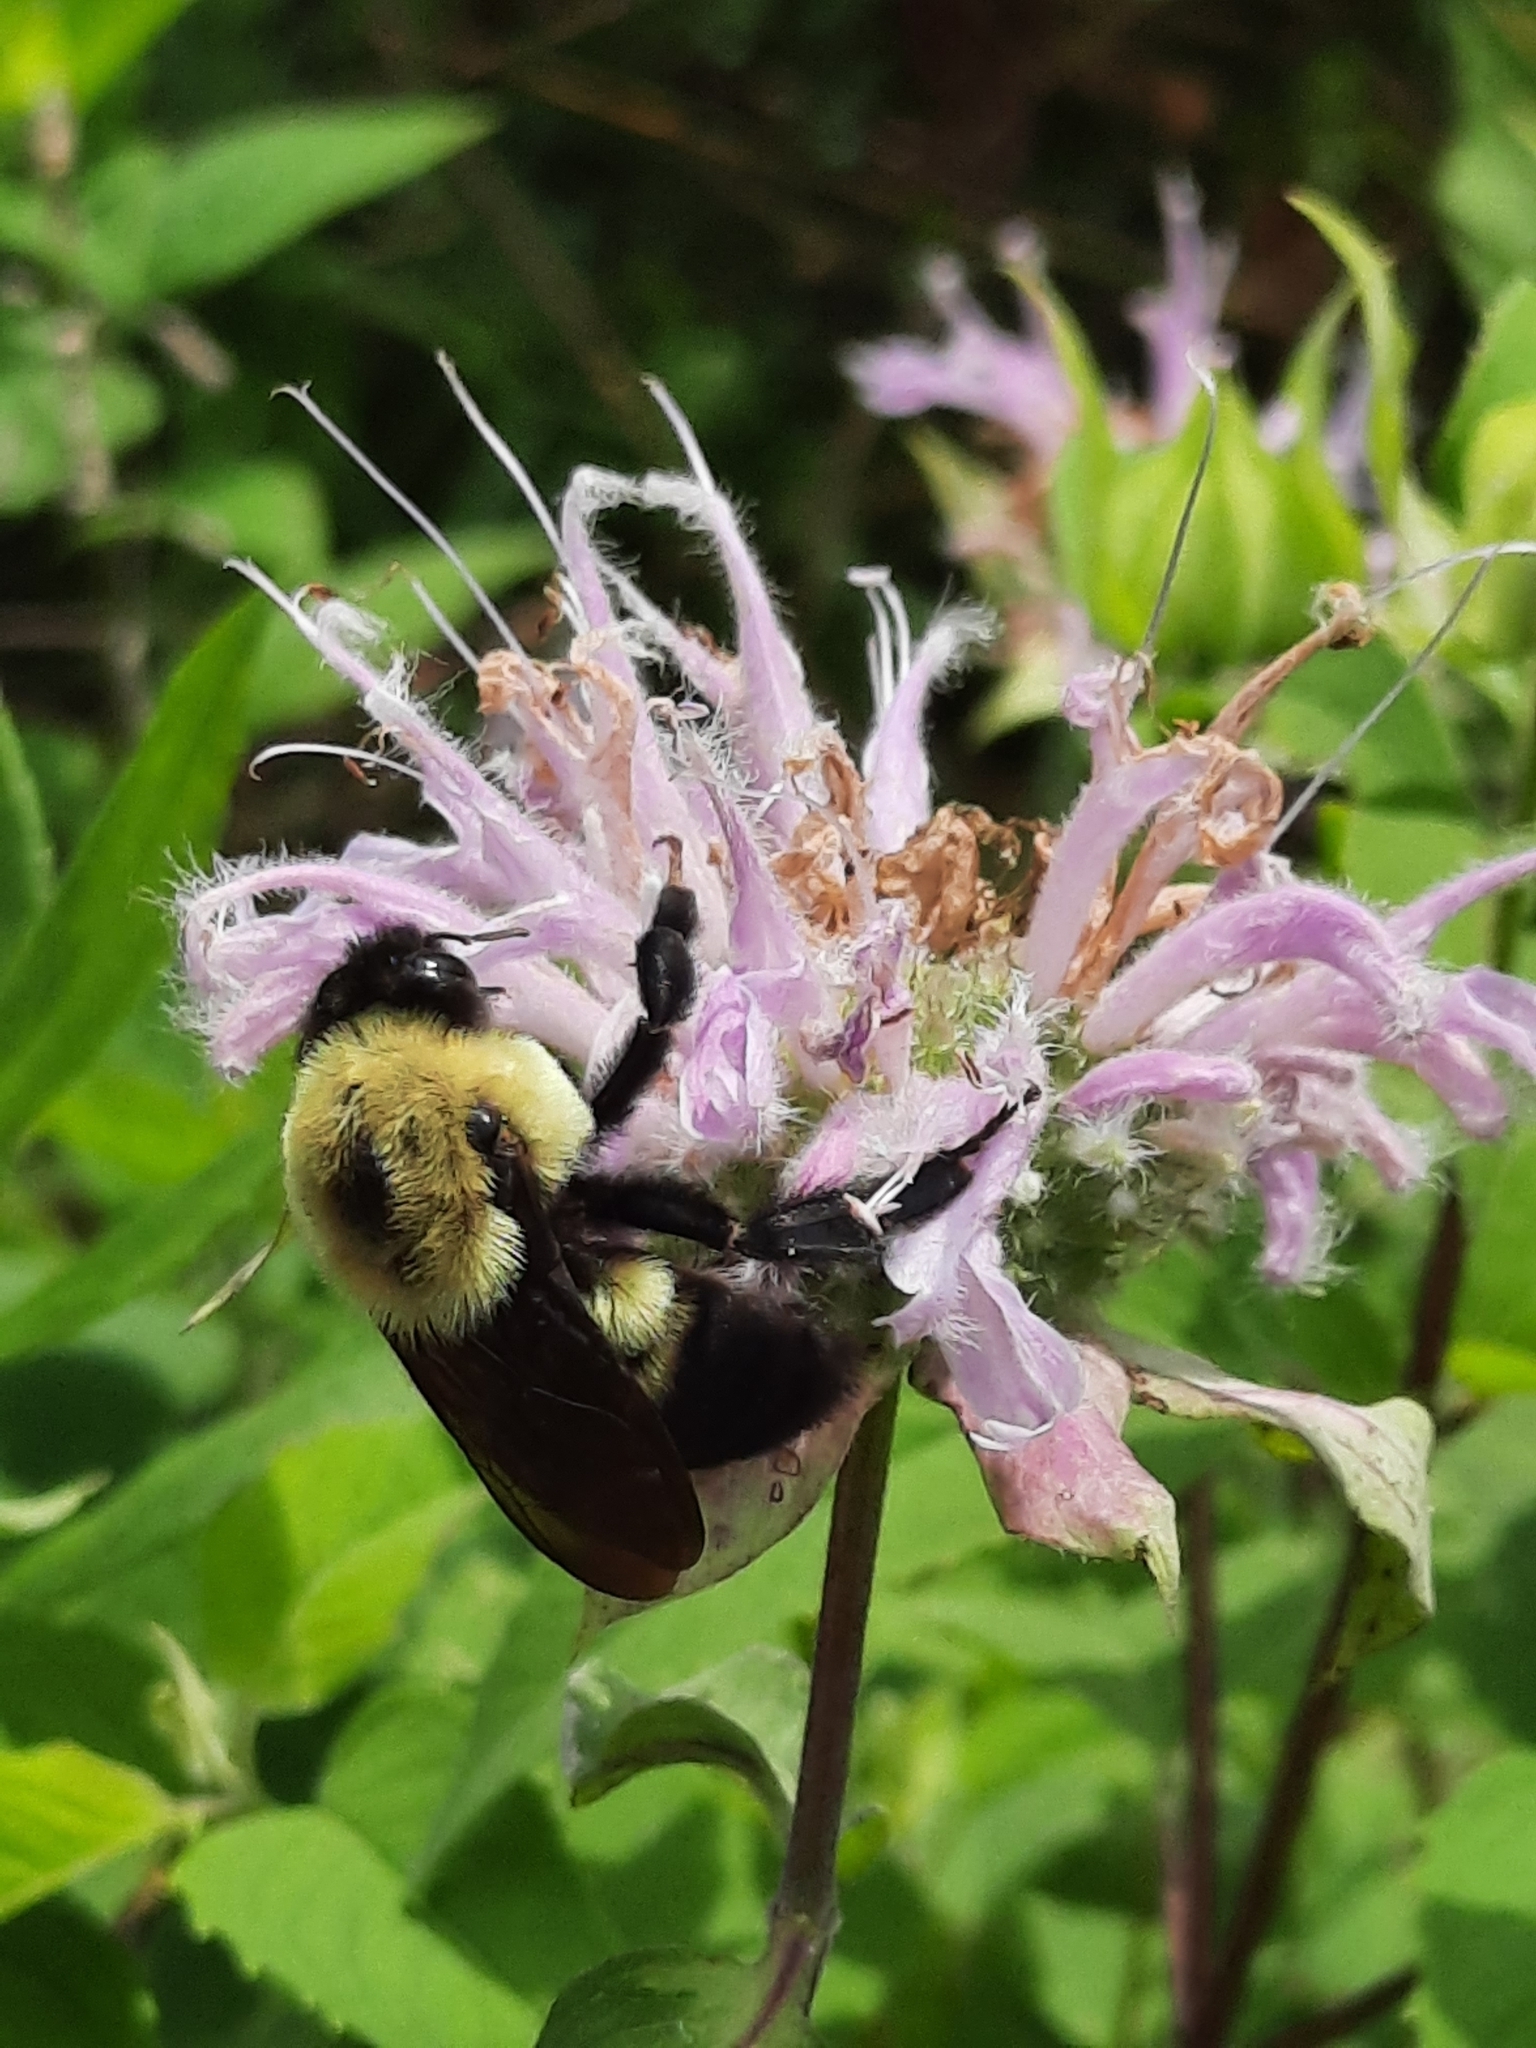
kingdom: Animalia
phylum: Arthropoda
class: Insecta
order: Hymenoptera
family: Apidae
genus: Bombus
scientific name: Bombus griseocollis
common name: Brown-belted bumble bee
